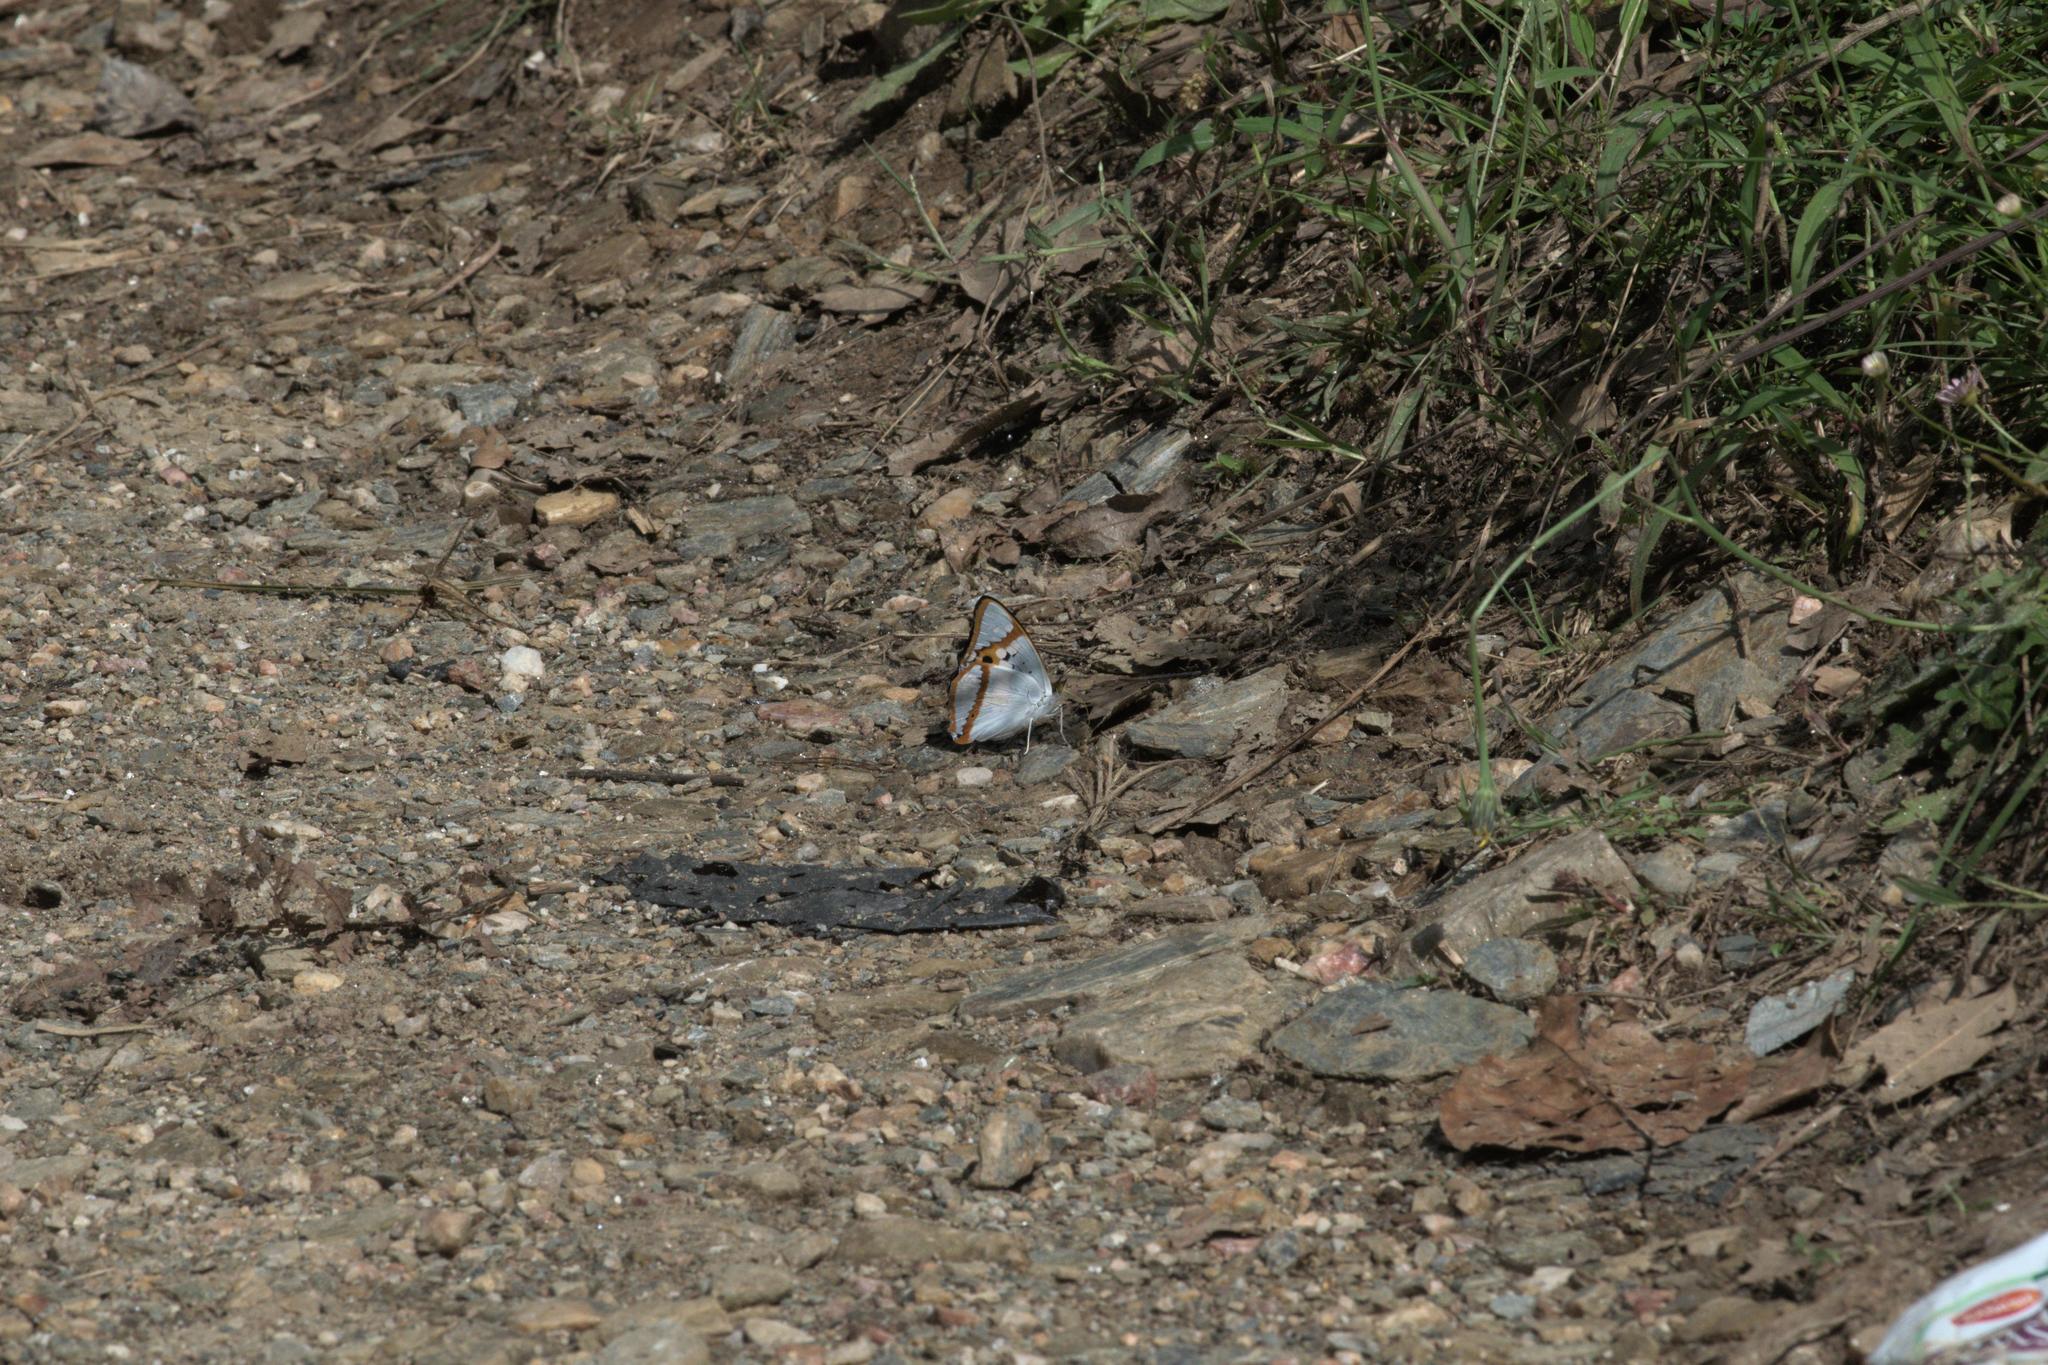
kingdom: Animalia
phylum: Arthropoda
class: Insecta
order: Lepidoptera
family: Nymphalidae
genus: Apatura
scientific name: Apatura Mimathyma ambica
